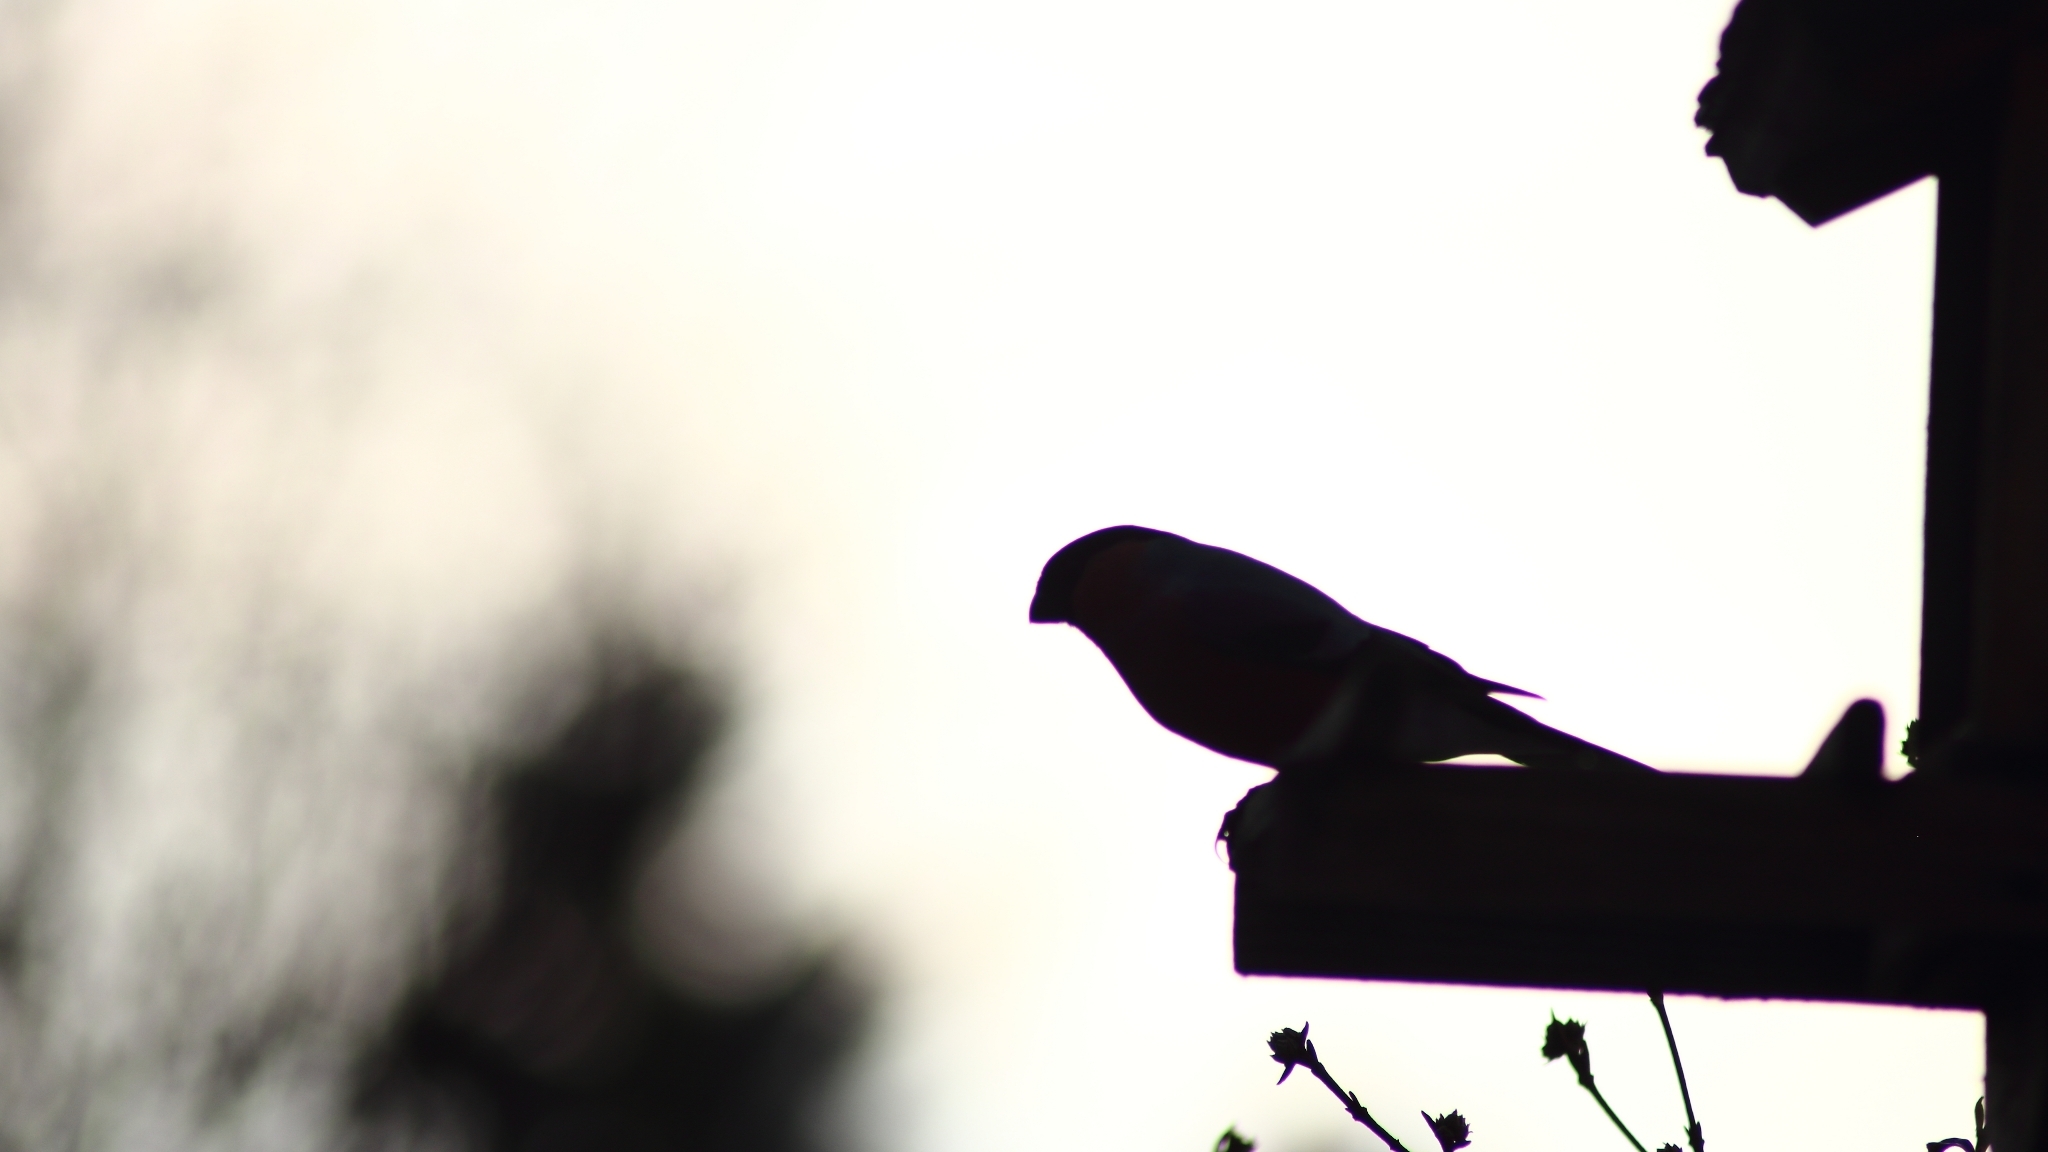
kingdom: Animalia
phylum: Chordata
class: Aves
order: Passeriformes
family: Fringillidae
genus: Pyrrhula
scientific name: Pyrrhula pyrrhula
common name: Eurasian bullfinch
